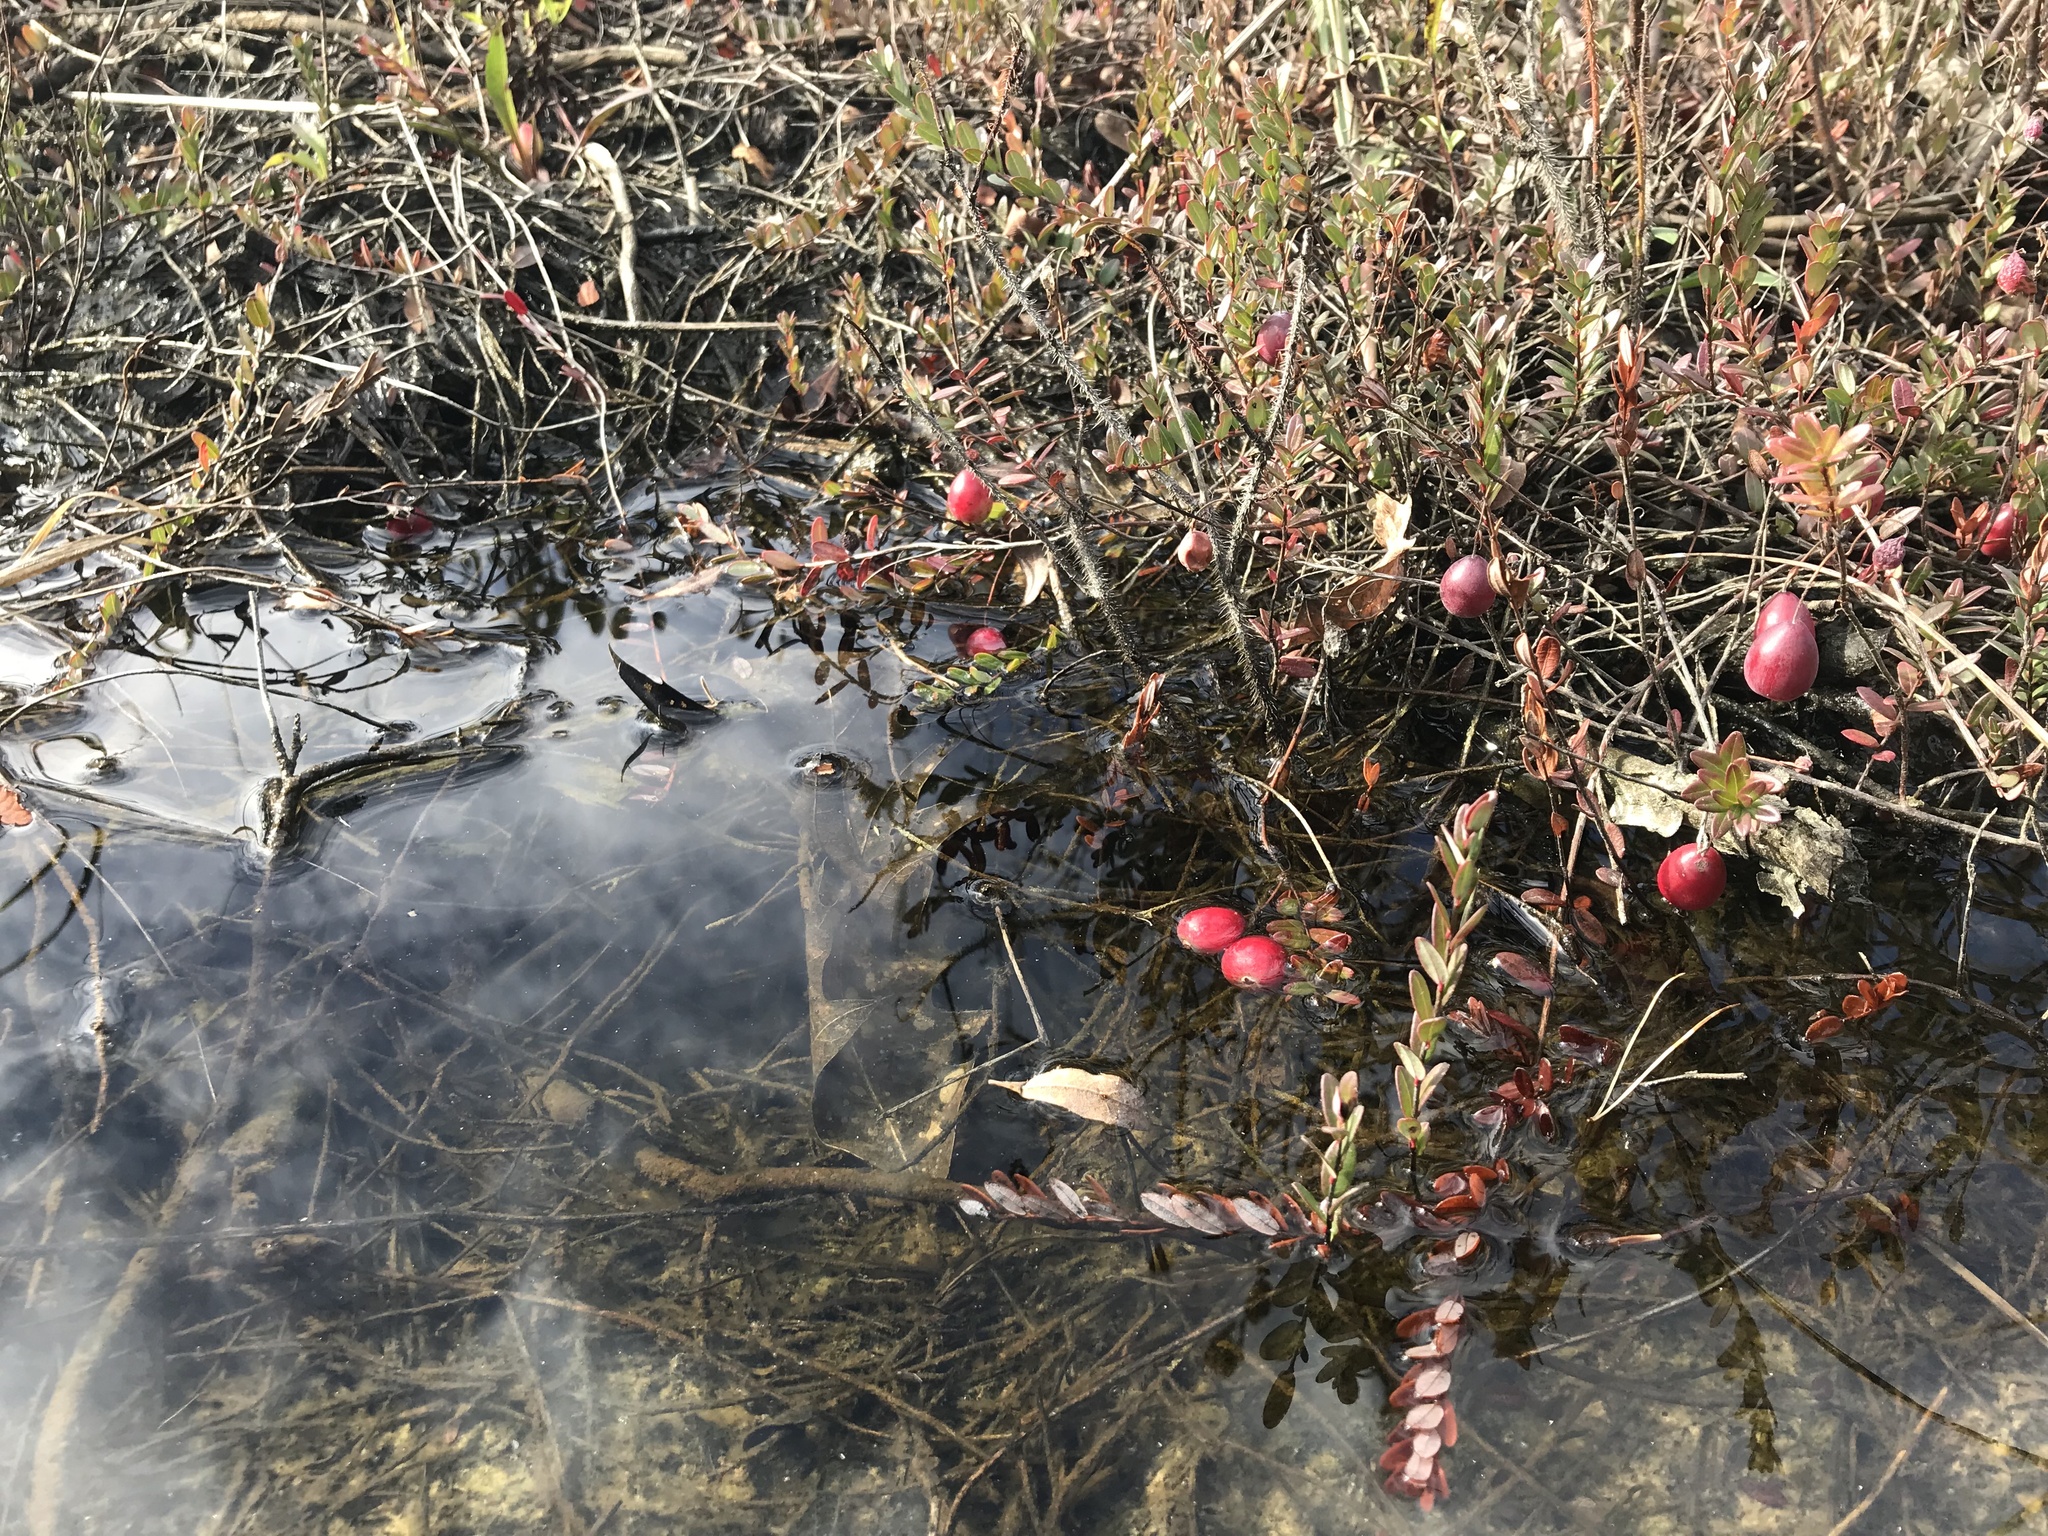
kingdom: Plantae
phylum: Tracheophyta
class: Magnoliopsida
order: Ericales
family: Ericaceae
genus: Vaccinium
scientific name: Vaccinium macrocarpon
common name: American cranberry
